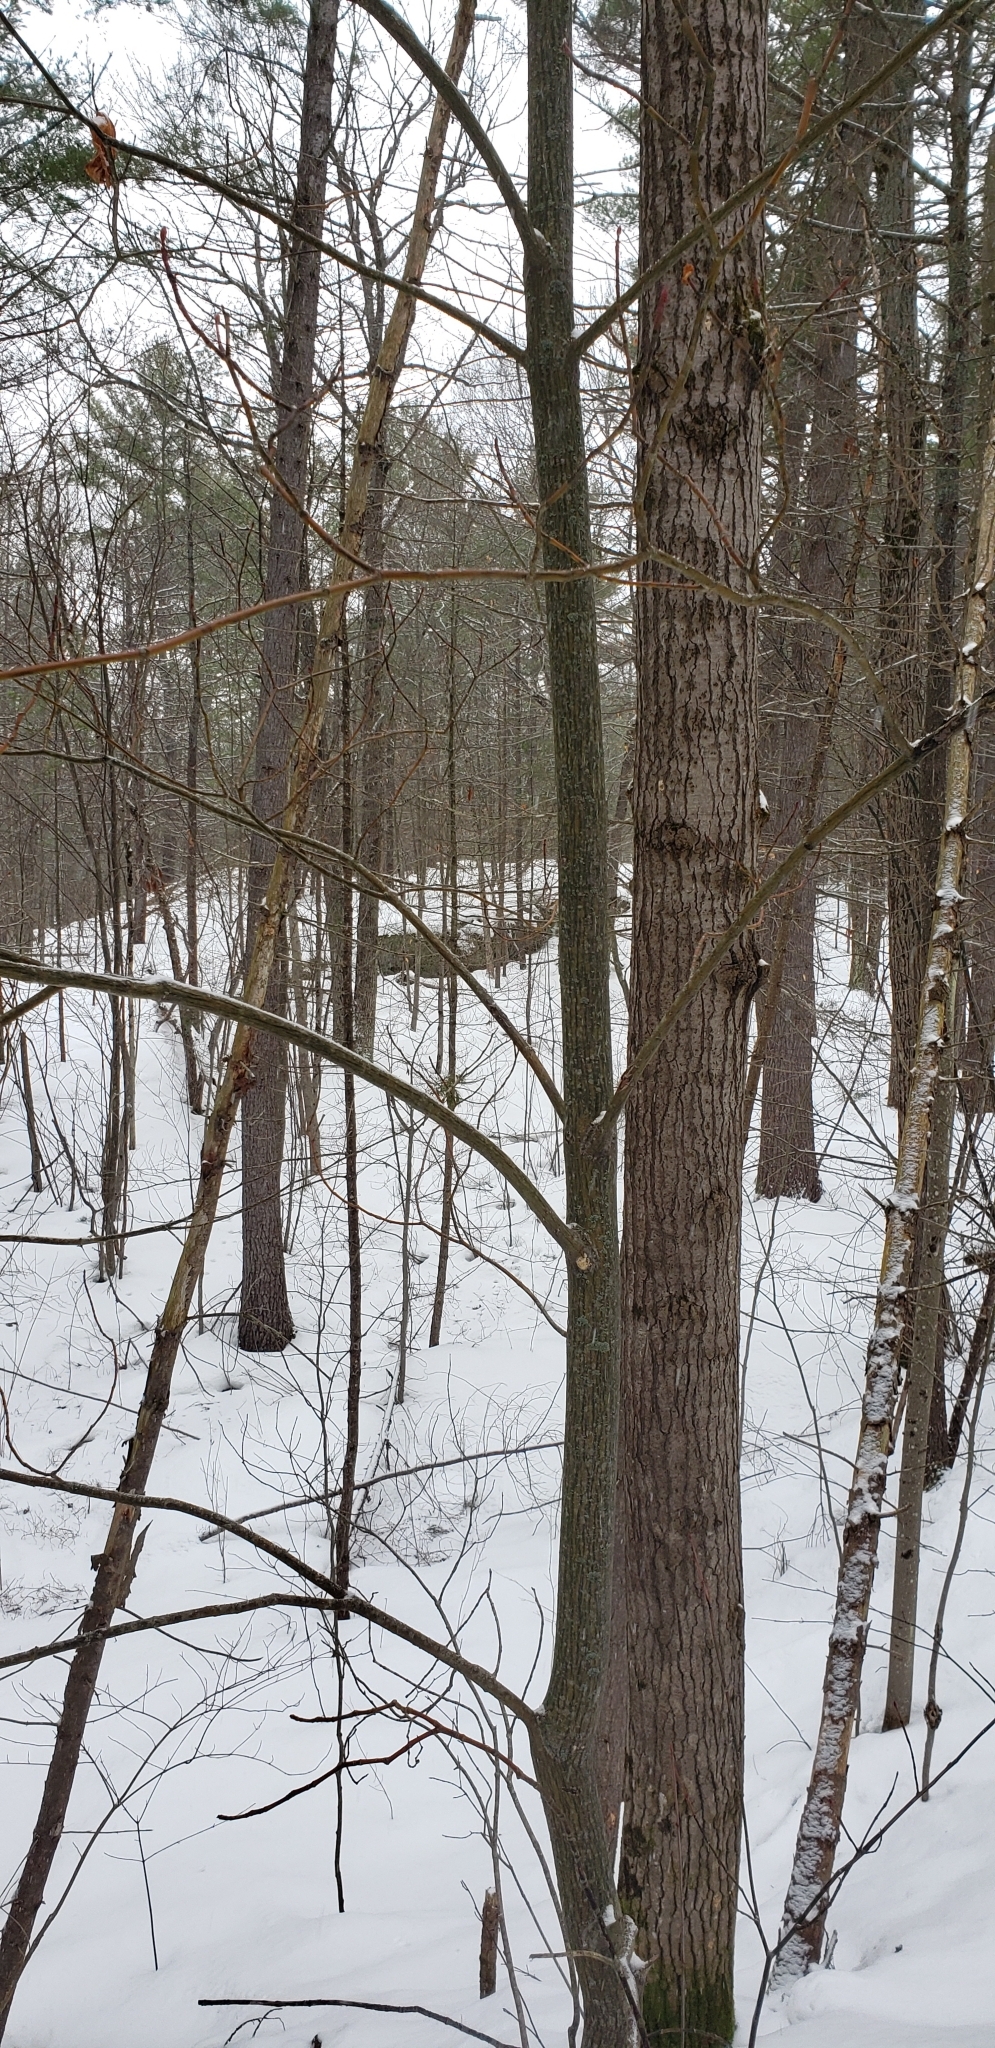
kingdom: Plantae
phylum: Tracheophyta
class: Magnoliopsida
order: Sapindales
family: Sapindaceae
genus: Acer
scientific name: Acer pensylvanicum
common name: Moosewood
